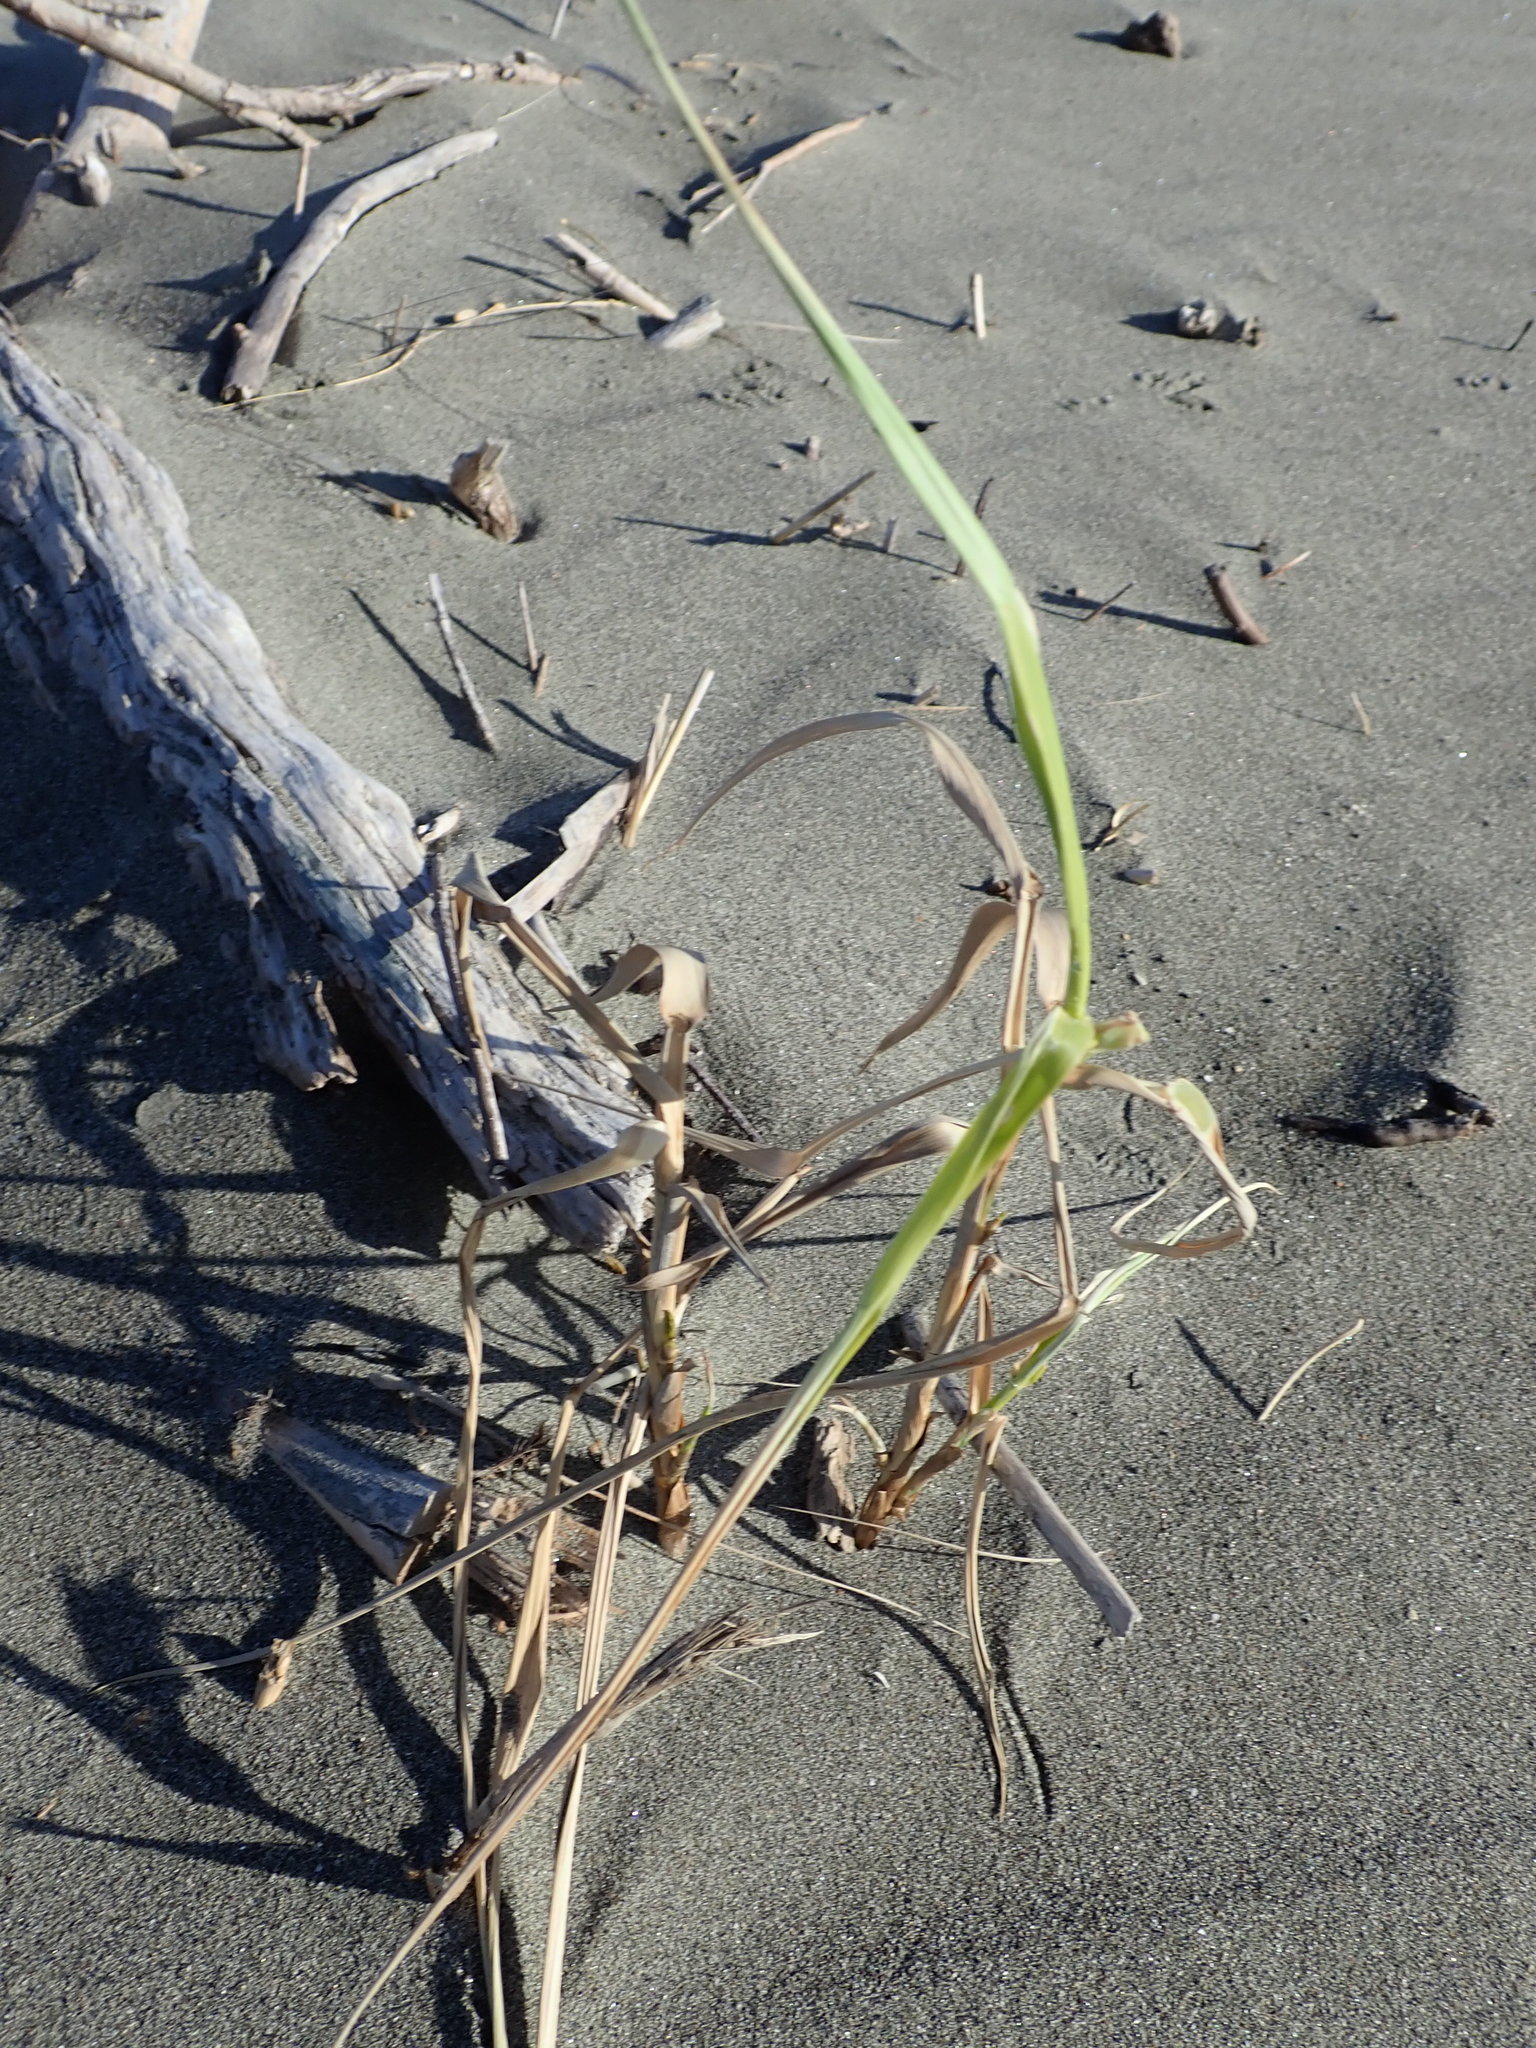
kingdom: Plantae
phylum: Tracheophyta
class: Liliopsida
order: Poales
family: Poaceae
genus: Phragmites
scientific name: Phragmites karka
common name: Tropical reed
